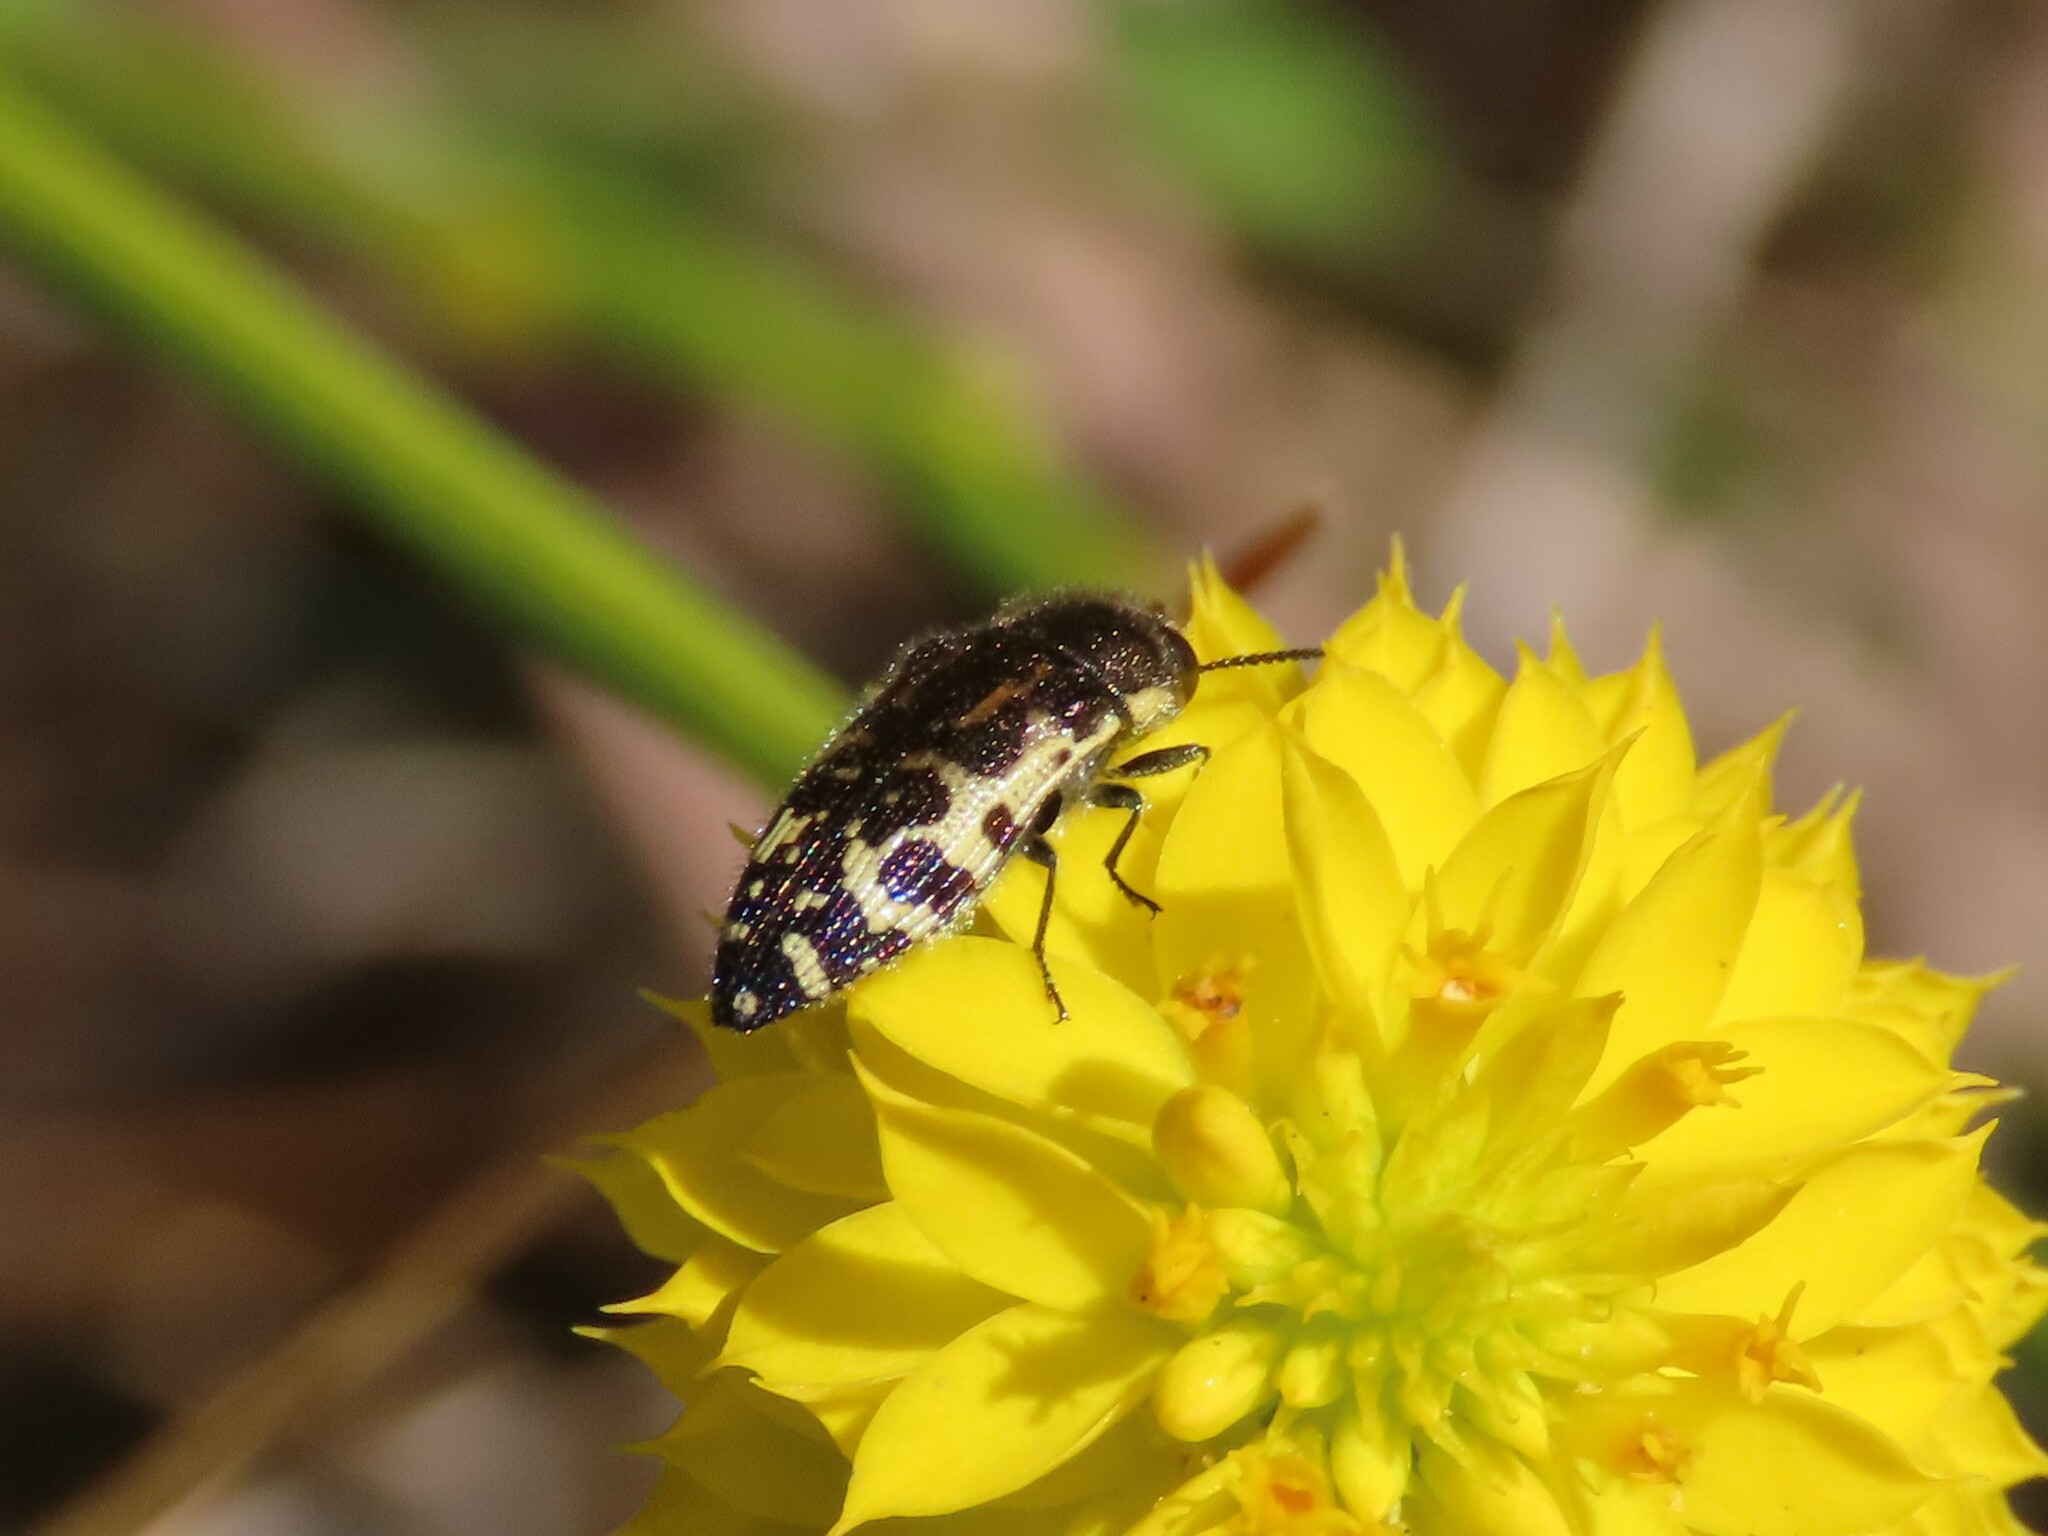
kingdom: Animalia
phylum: Arthropoda
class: Insecta
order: Coleoptera
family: Buprestidae
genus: Acmaeodera
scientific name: Acmaeodera pulchella
